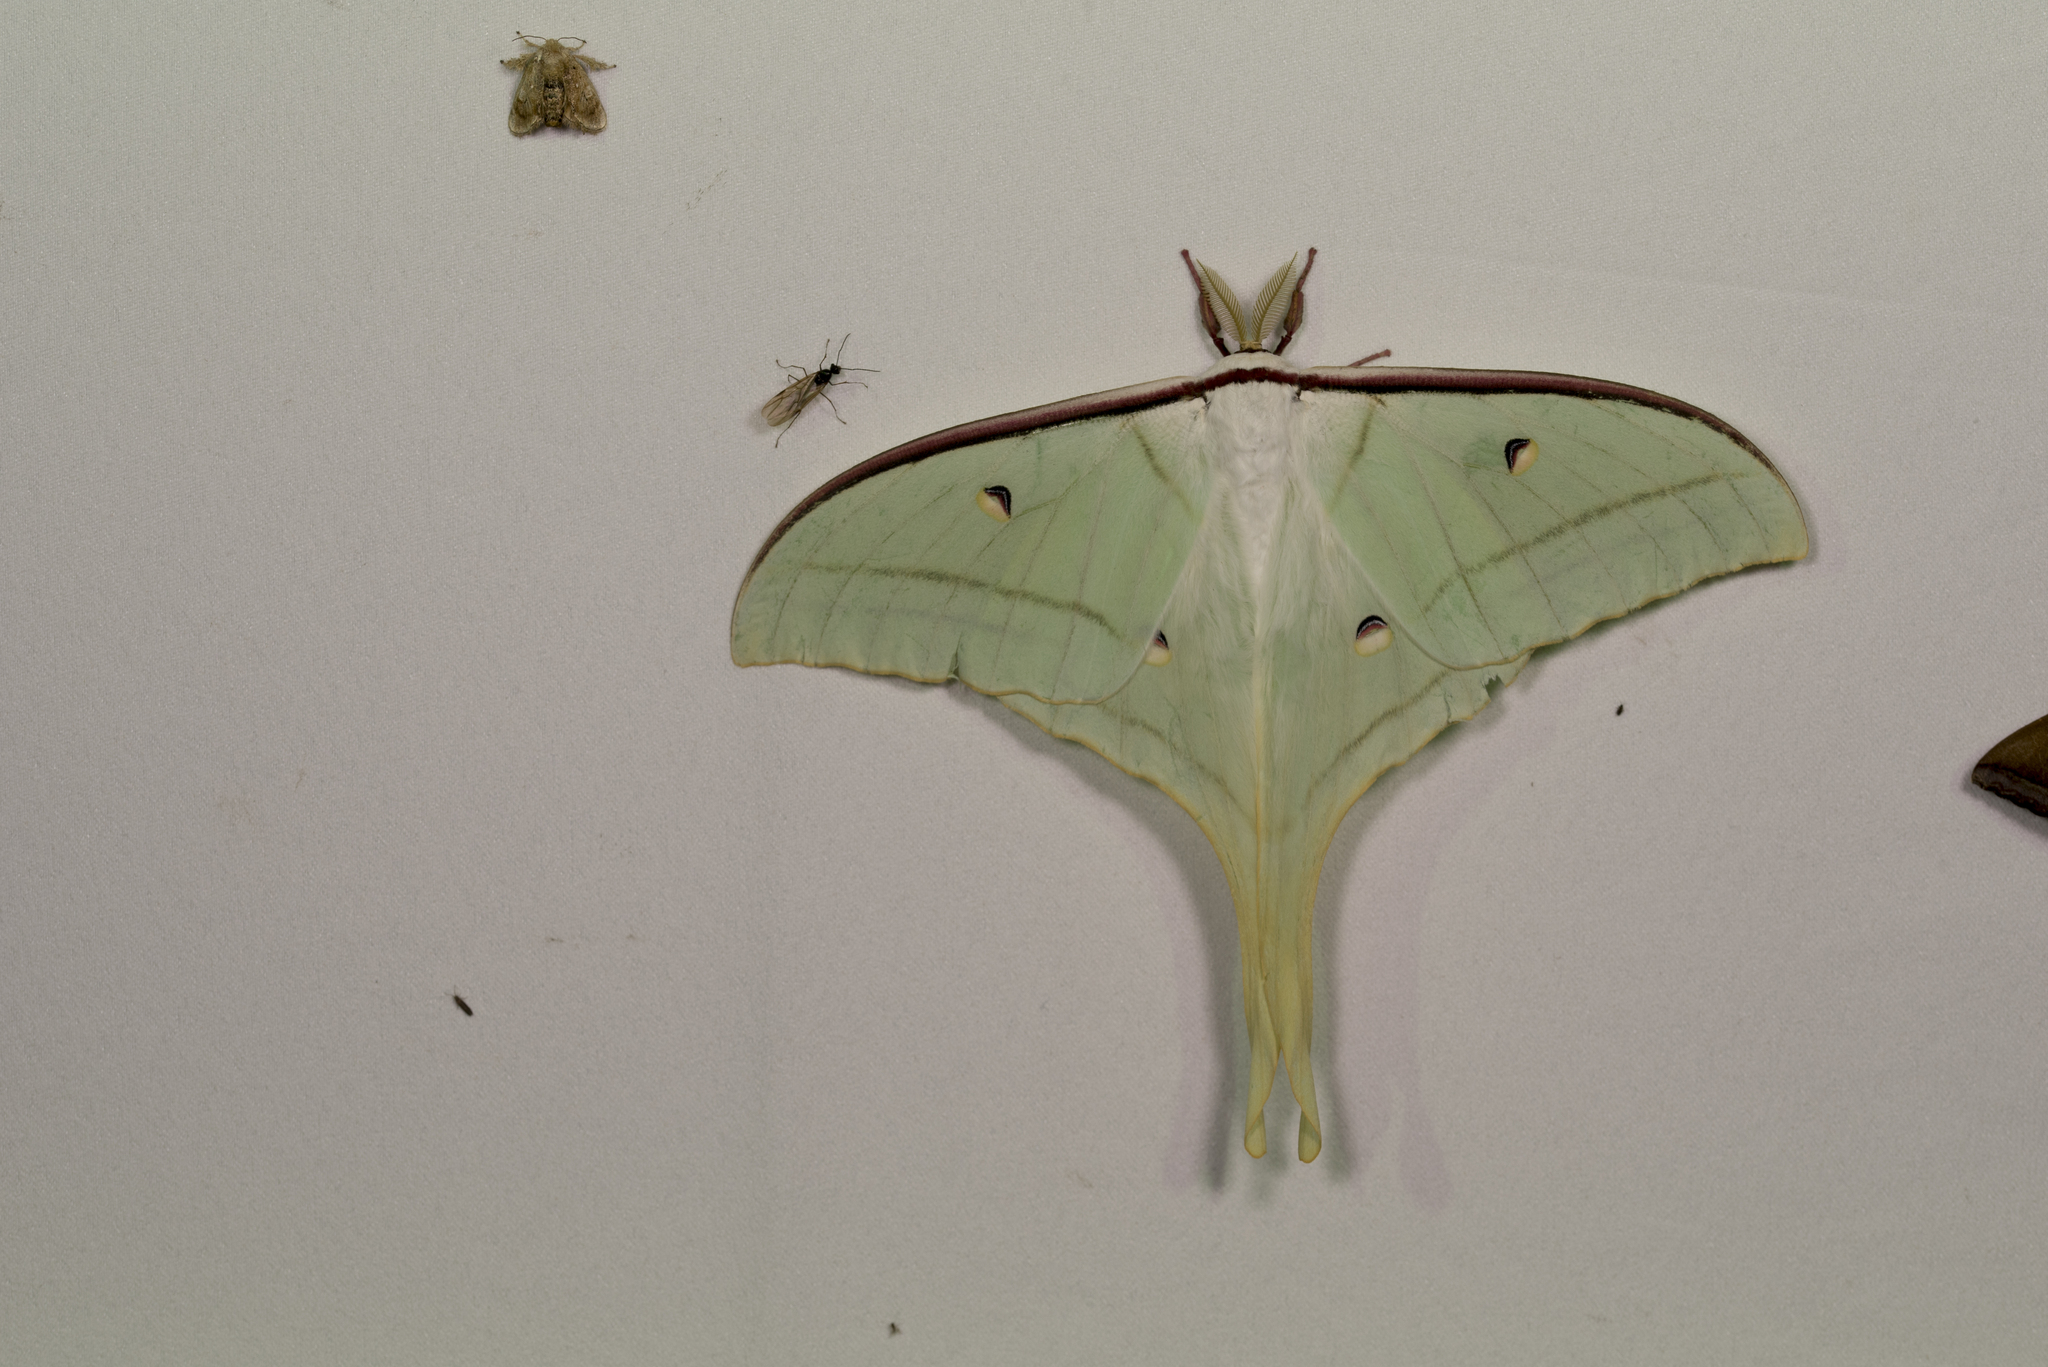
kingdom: Animalia
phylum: Arthropoda
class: Insecta
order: Lepidoptera
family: Saturniidae
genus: Actias
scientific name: Actias ningpoana
